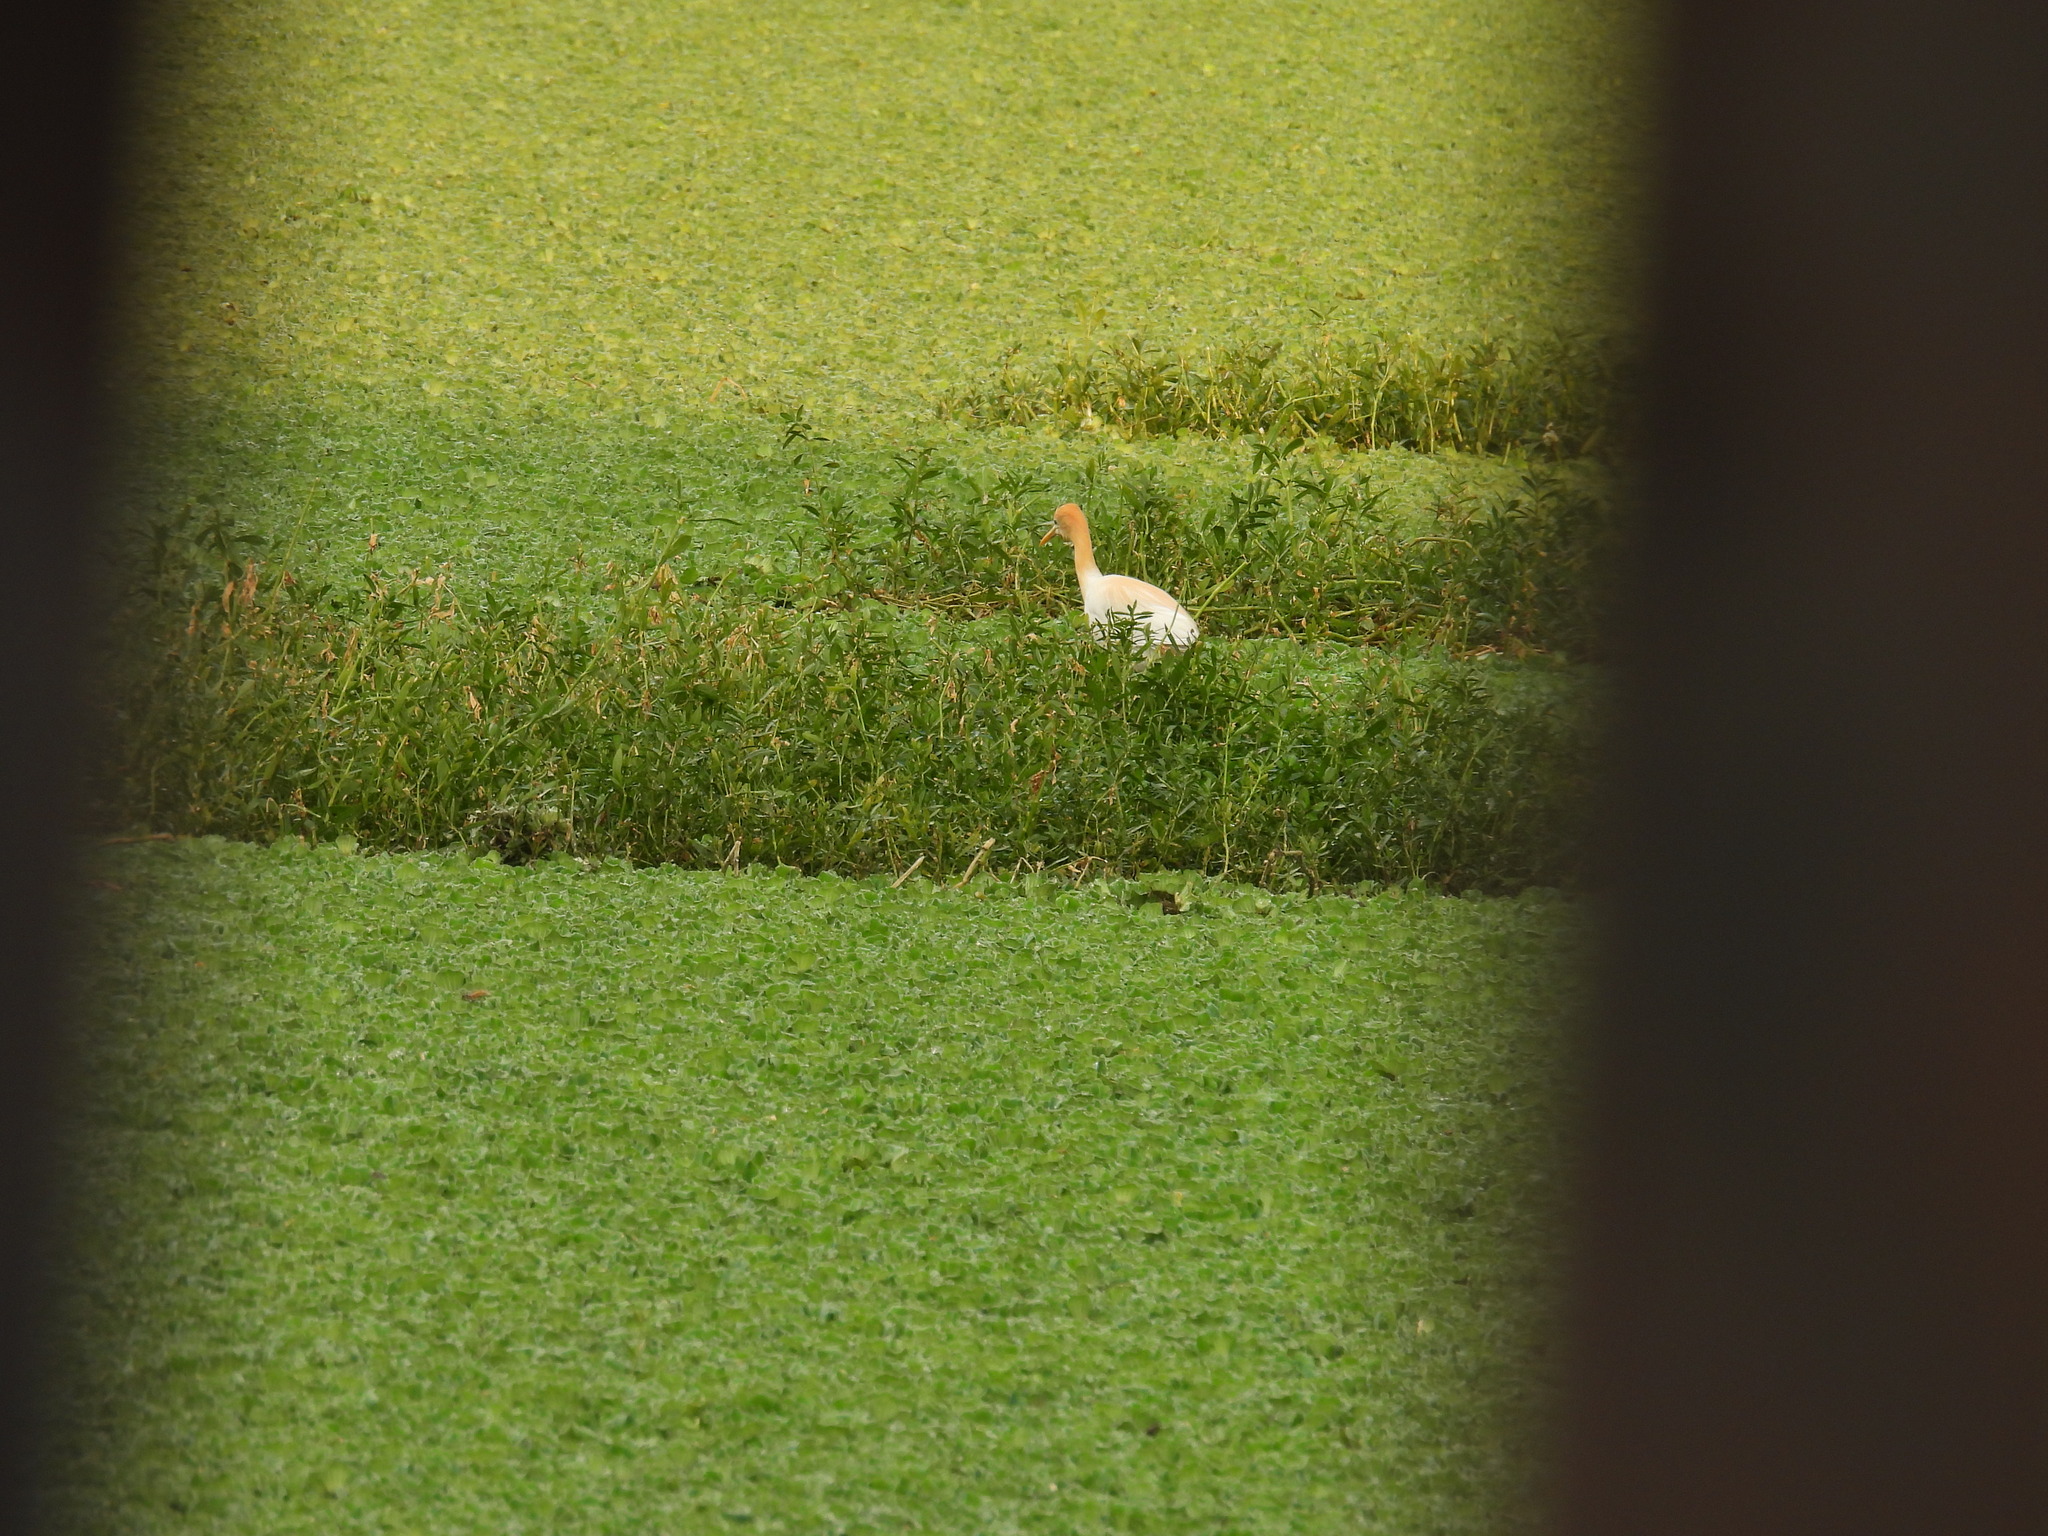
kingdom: Animalia
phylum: Chordata
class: Aves
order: Pelecaniformes
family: Ardeidae
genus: Bubulcus
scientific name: Bubulcus coromandus
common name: Eastern cattle egret
